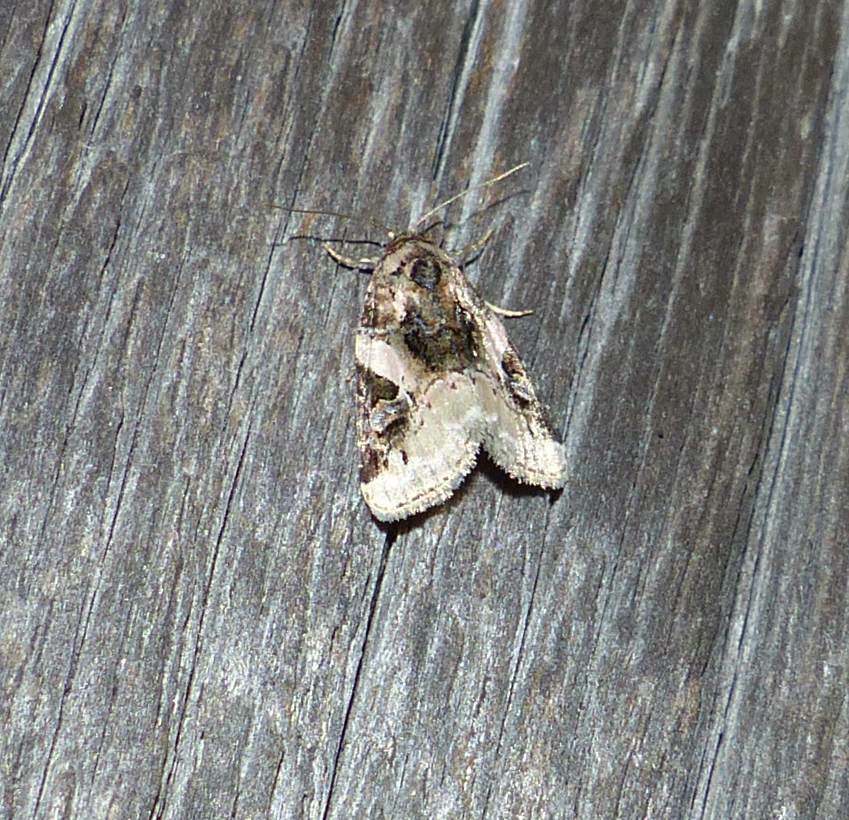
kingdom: Animalia
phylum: Arthropoda
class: Insecta
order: Lepidoptera
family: Noctuidae
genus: Pseudeustrotia
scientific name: Pseudeustrotia carneola
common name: Pink-barred lithacodia moth
